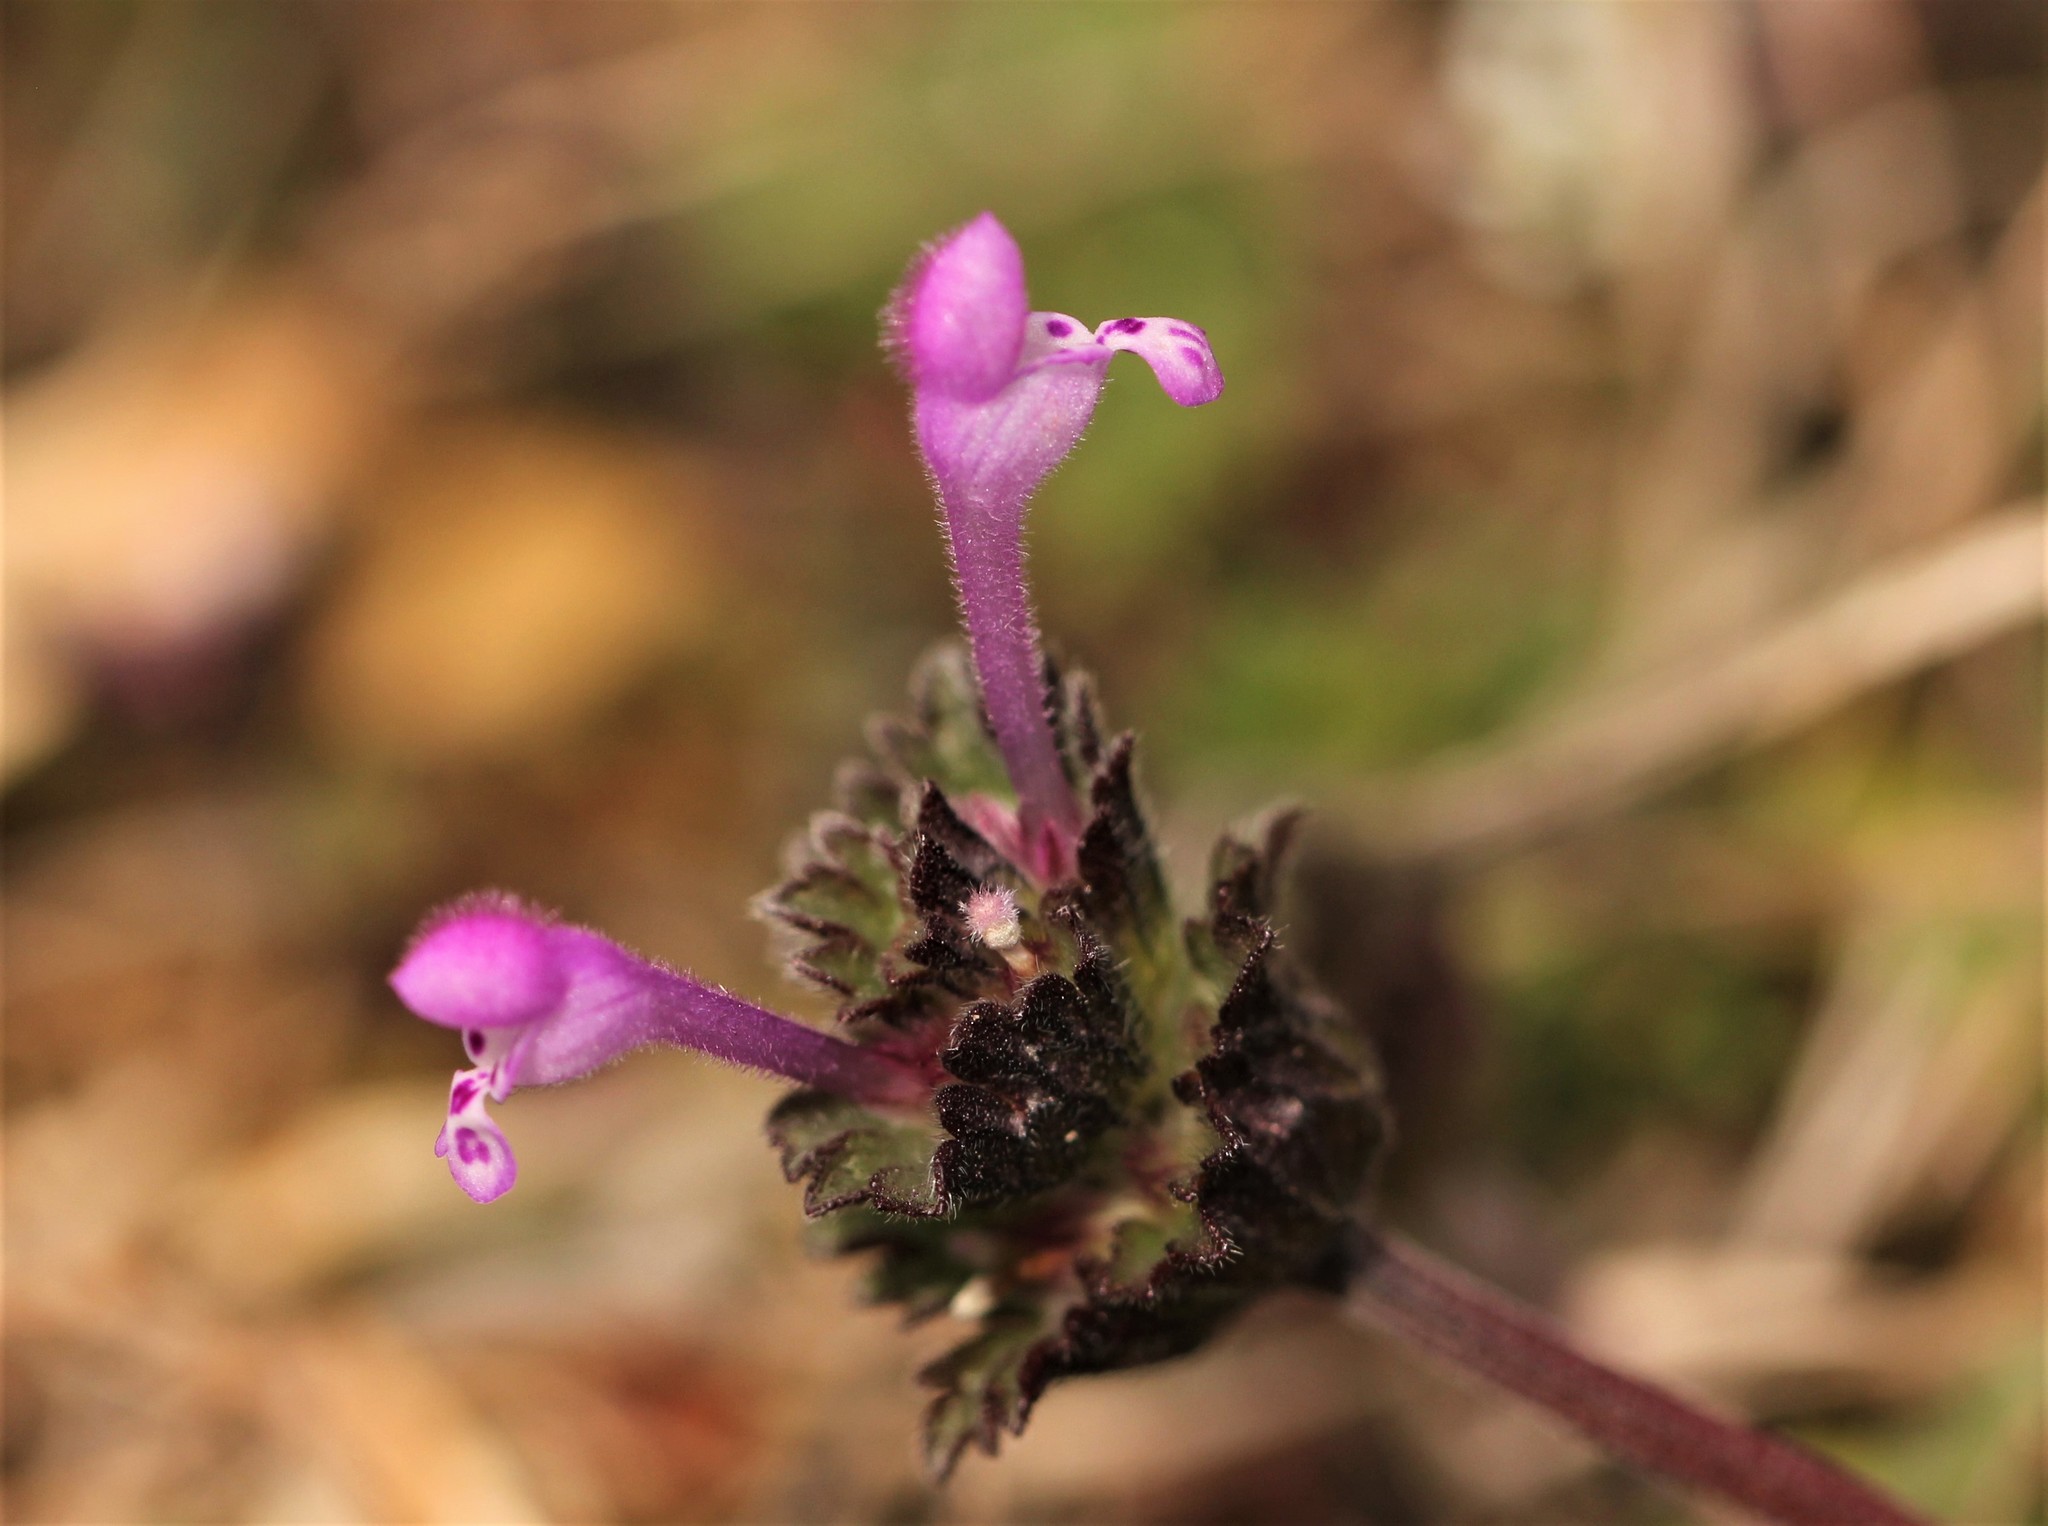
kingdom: Plantae
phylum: Tracheophyta
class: Magnoliopsida
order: Lamiales
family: Lamiaceae
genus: Lamium
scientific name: Lamium amplexicaule
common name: Henbit dead-nettle
